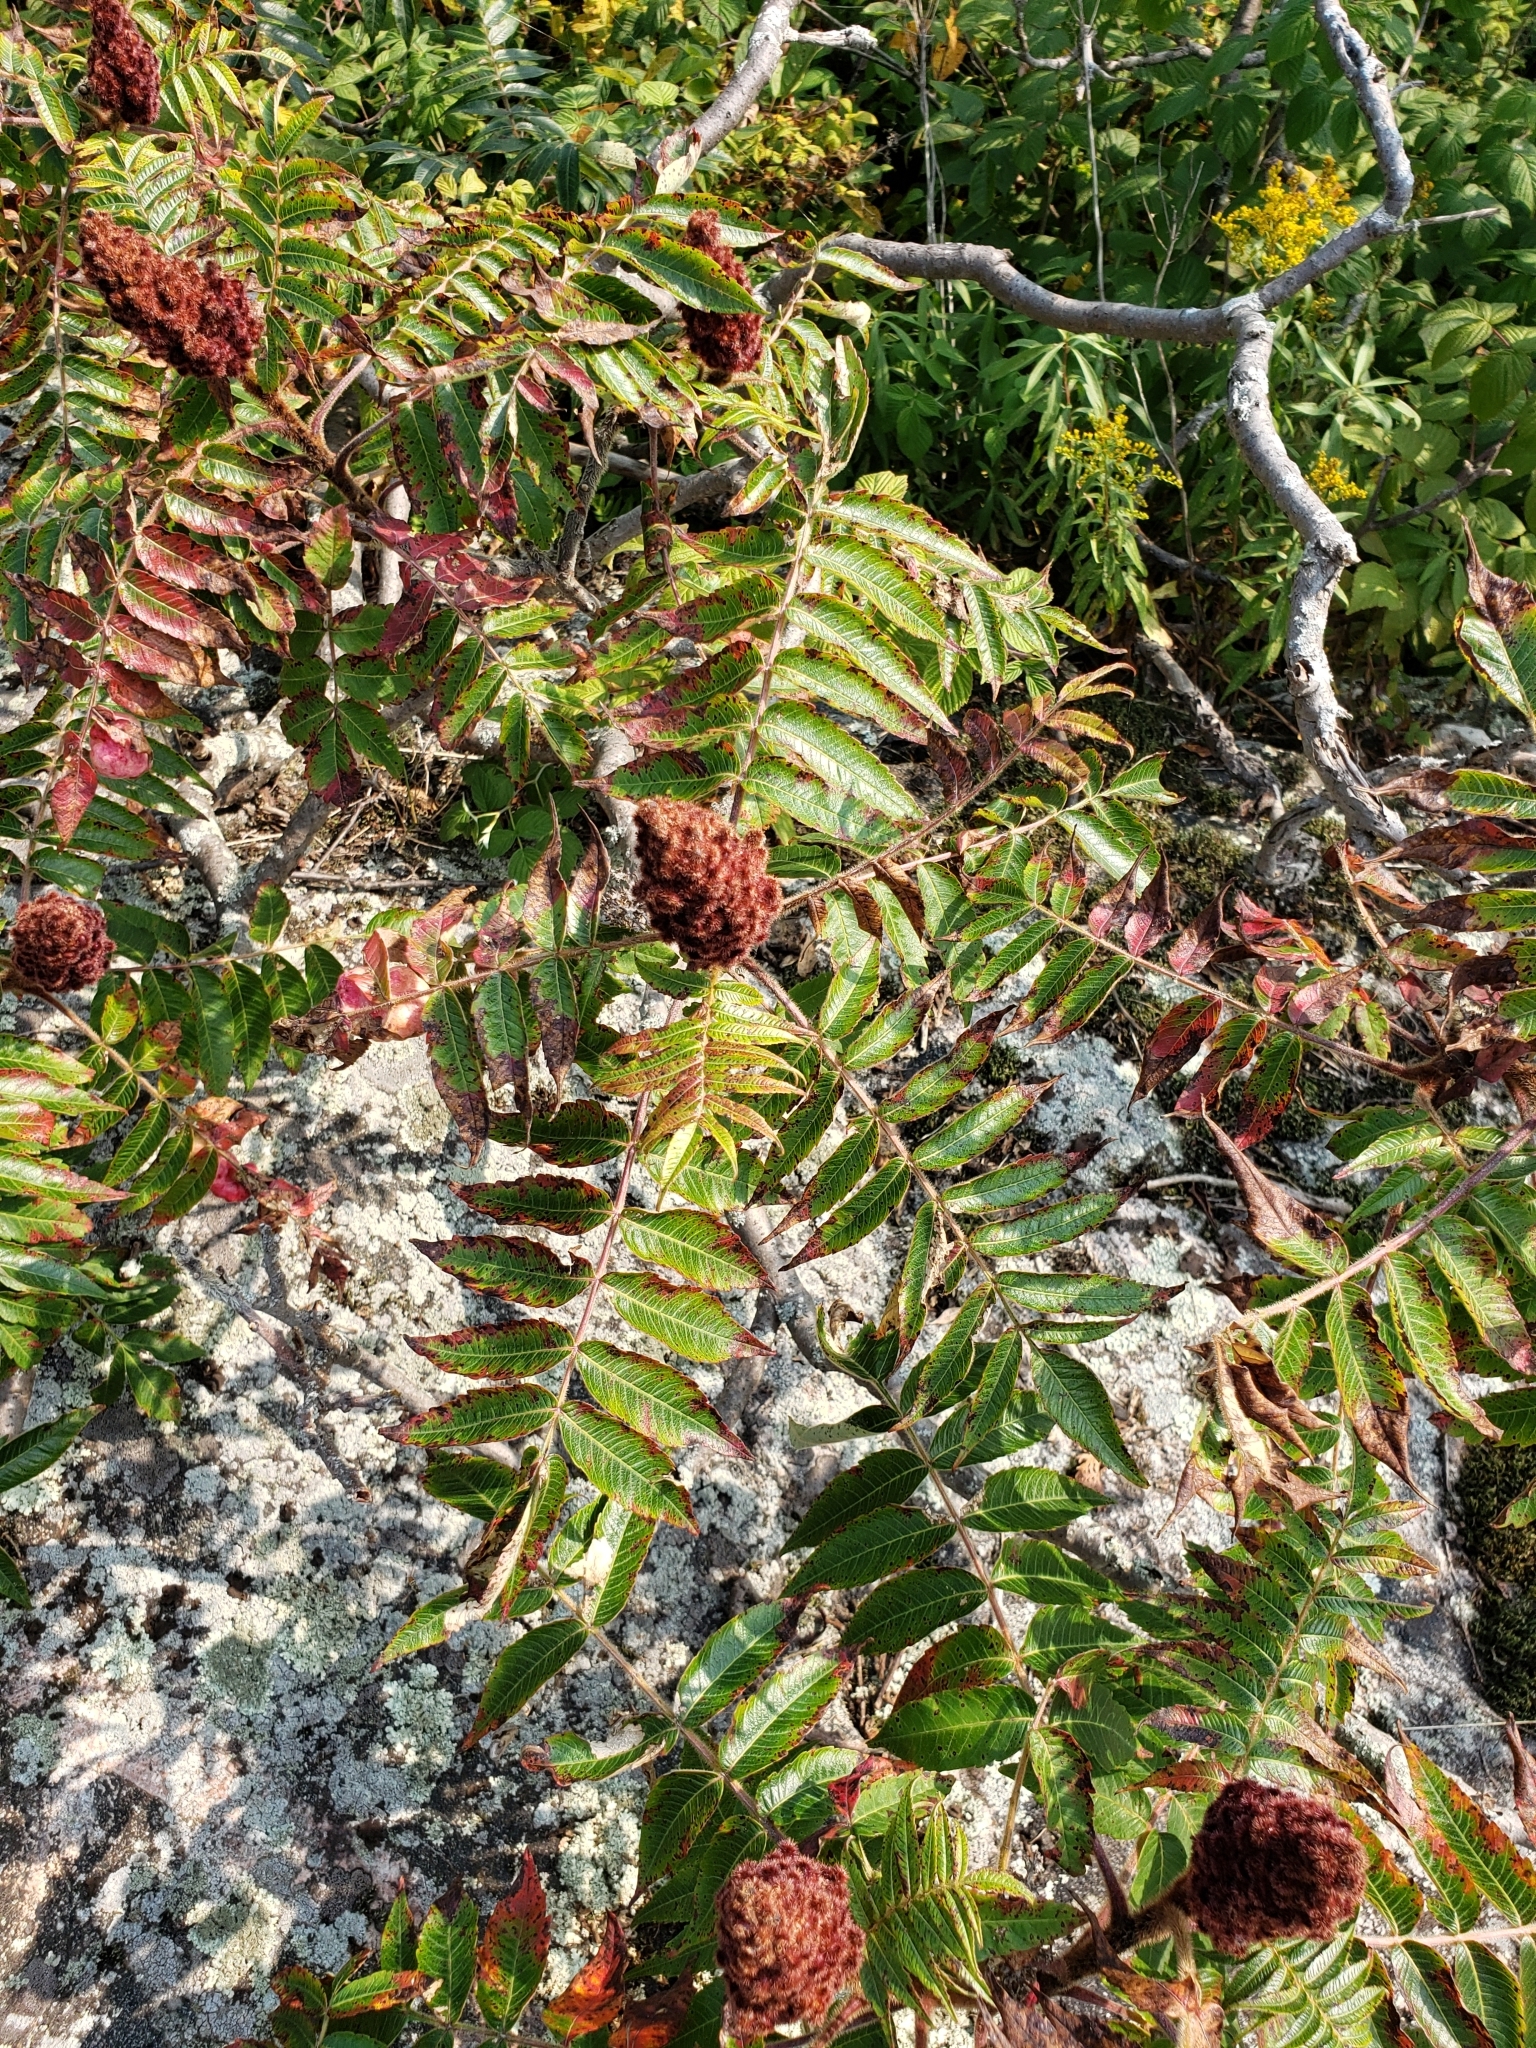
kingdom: Plantae
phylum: Tracheophyta
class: Magnoliopsida
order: Sapindales
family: Anacardiaceae
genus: Rhus
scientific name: Rhus typhina
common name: Staghorn sumac
